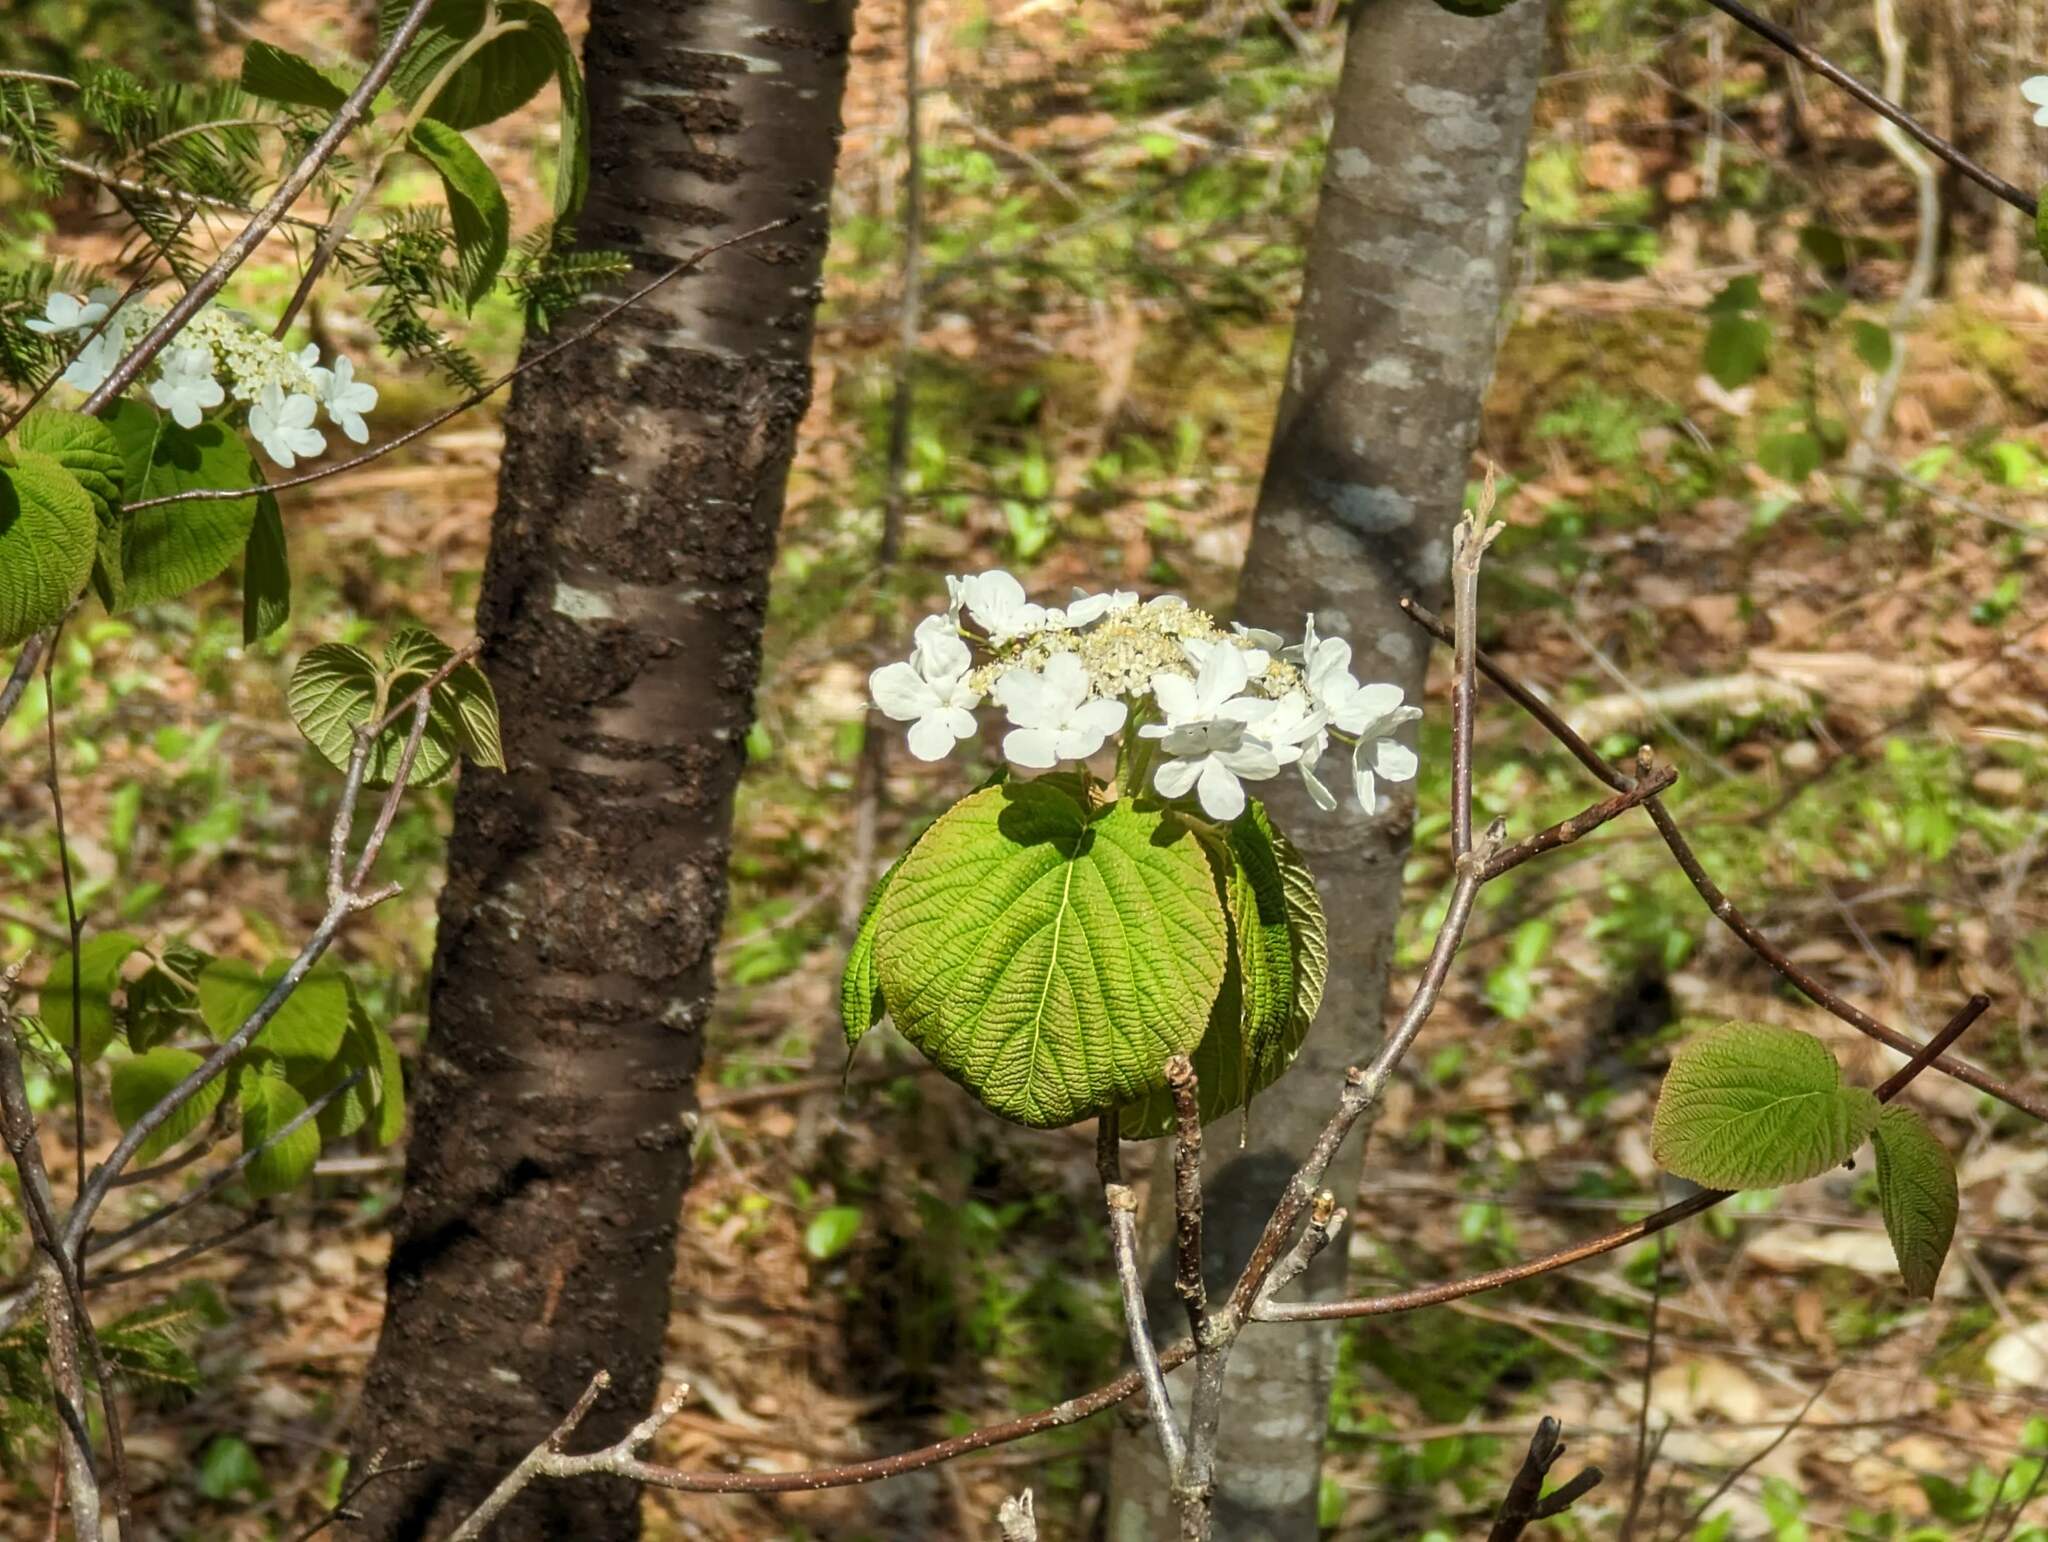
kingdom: Plantae
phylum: Tracheophyta
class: Magnoliopsida
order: Dipsacales
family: Viburnaceae
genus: Viburnum
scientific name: Viburnum lantanoides
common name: Hobblebush
